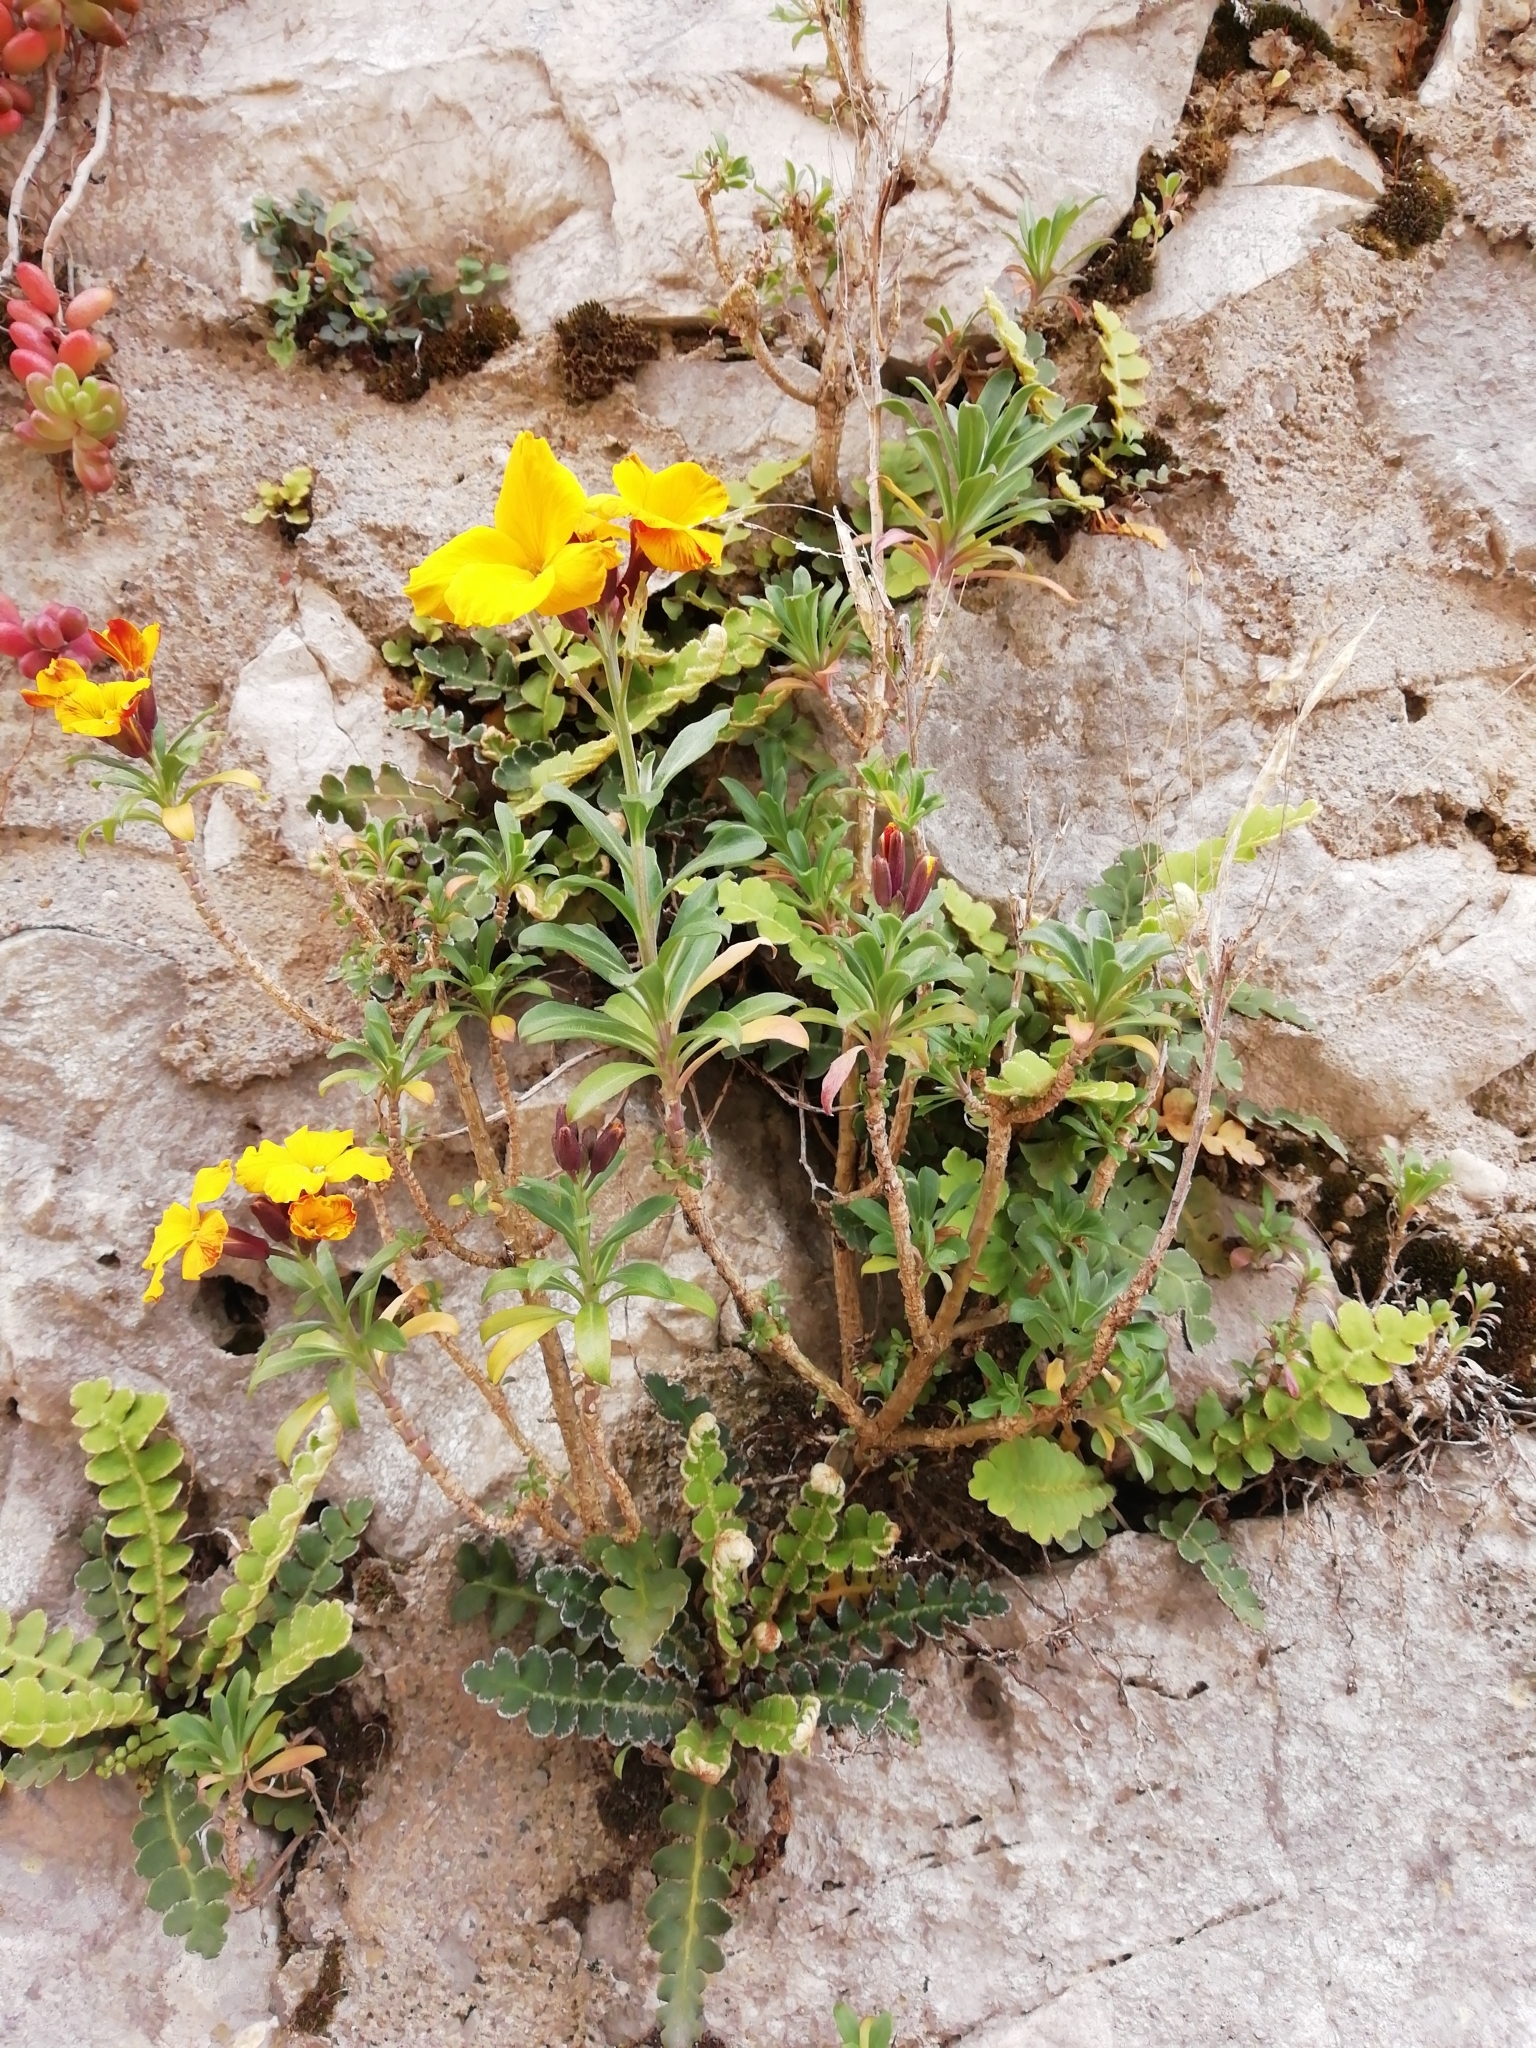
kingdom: Plantae
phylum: Tracheophyta
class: Magnoliopsida
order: Brassicales
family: Brassicaceae
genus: Erysimum
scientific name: Erysimum cheiri
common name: Wallflower
